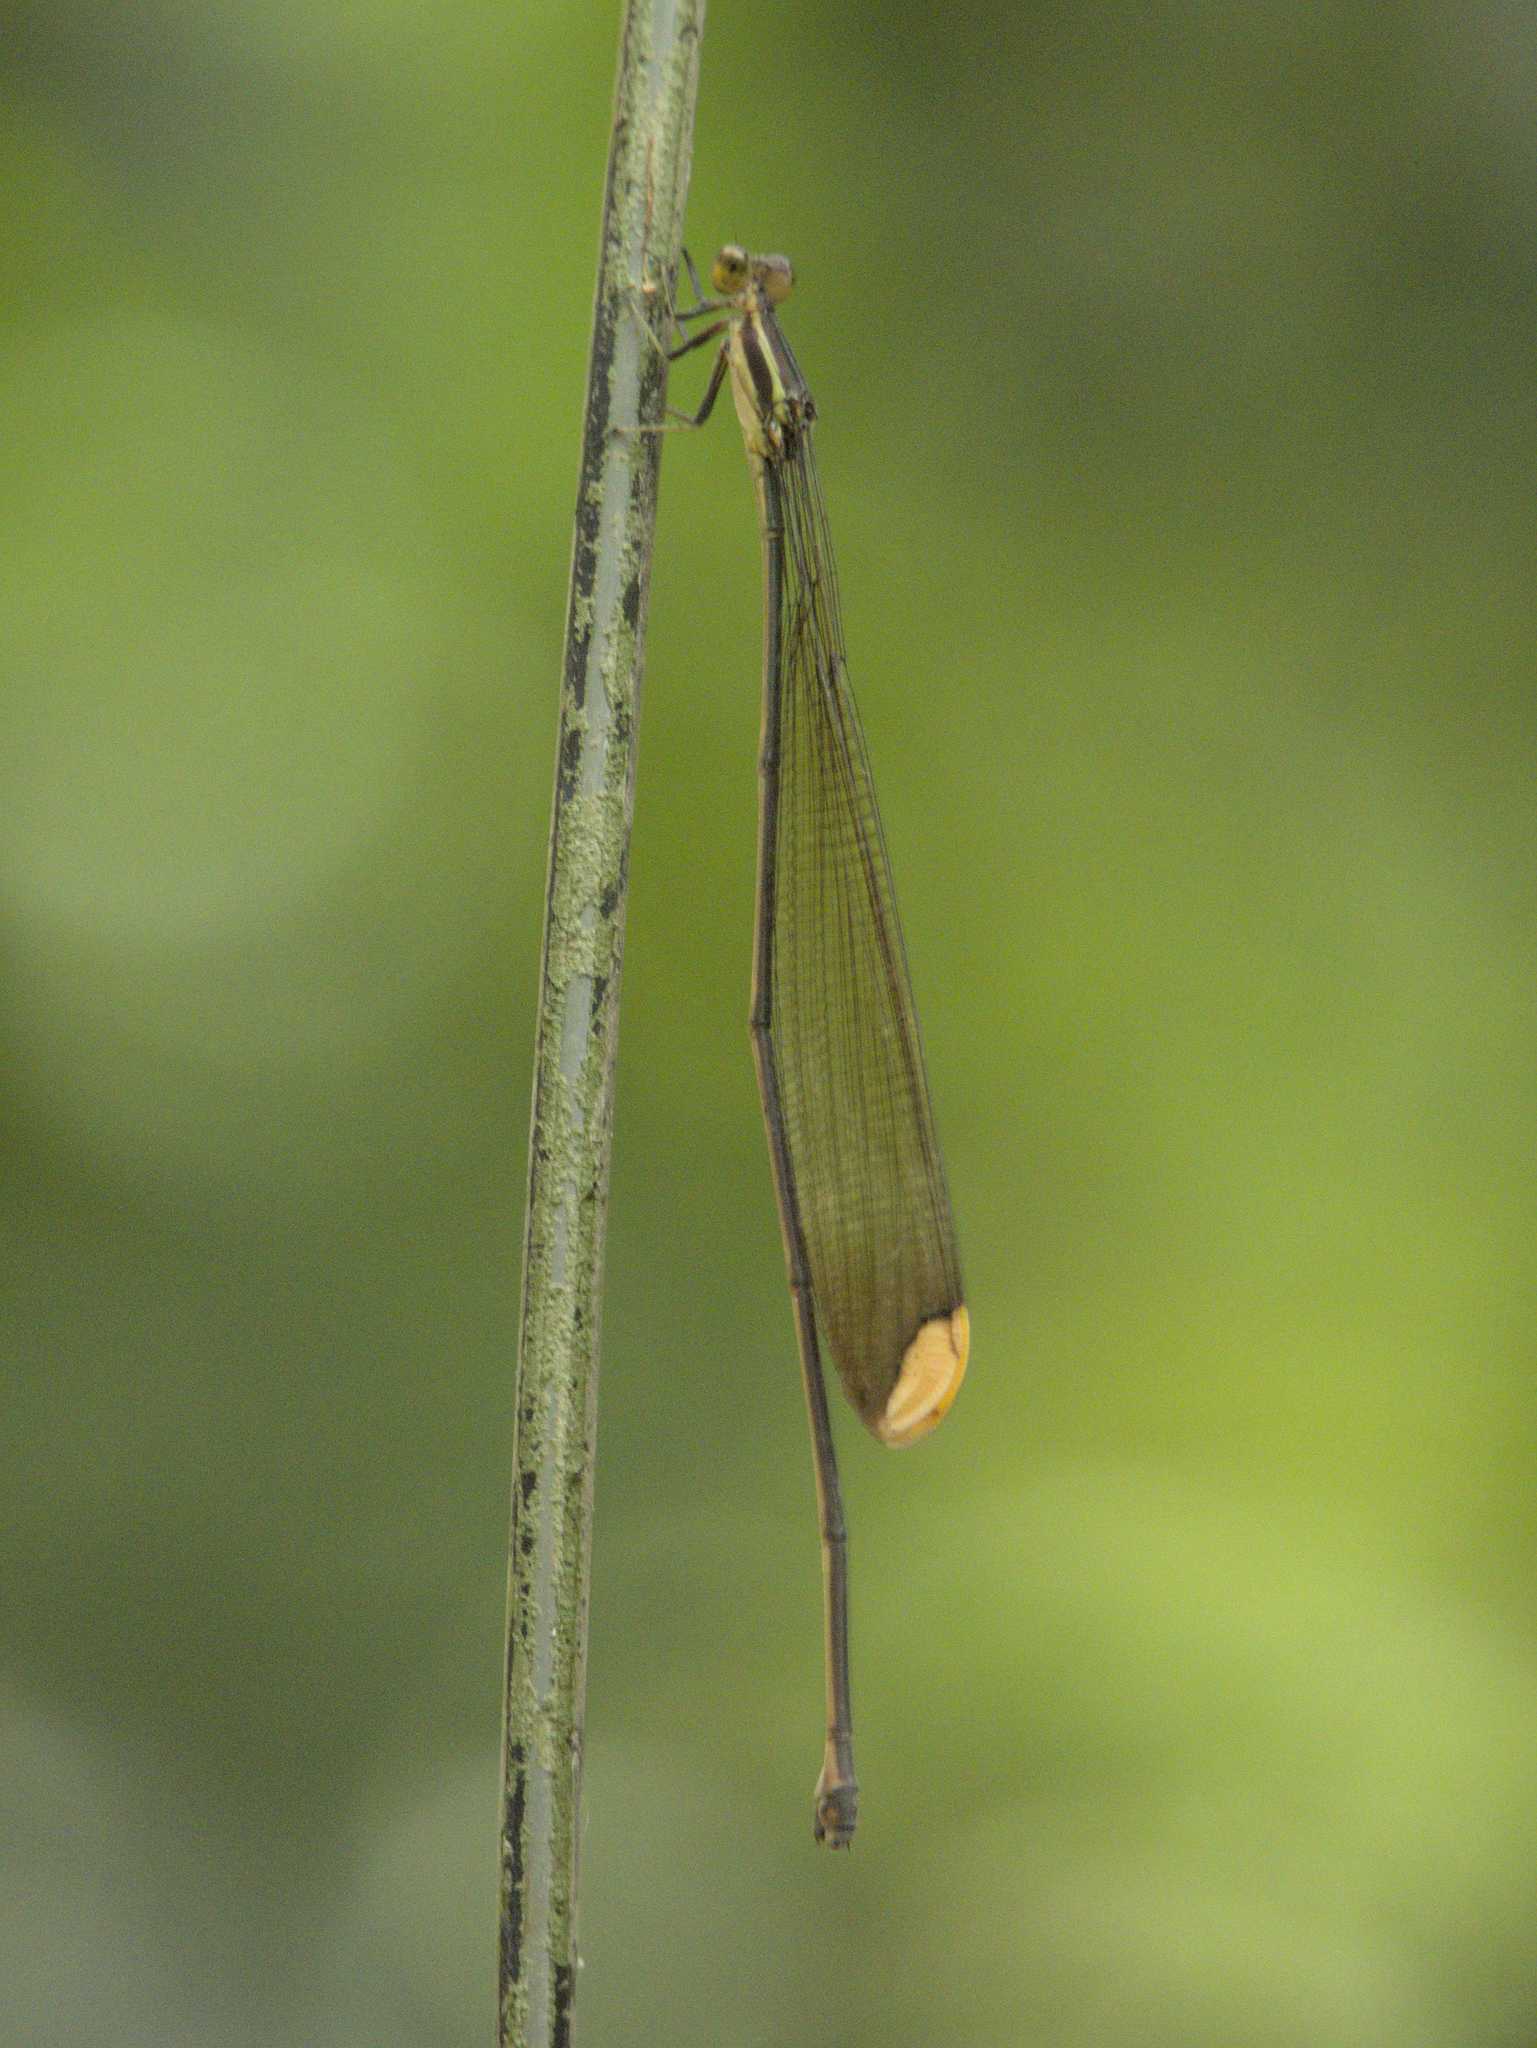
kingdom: Animalia
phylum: Arthropoda
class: Insecta
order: Odonata
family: Coenagrionidae
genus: Mecistogaster
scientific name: Mecistogaster ornata
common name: Ornate helicopter
